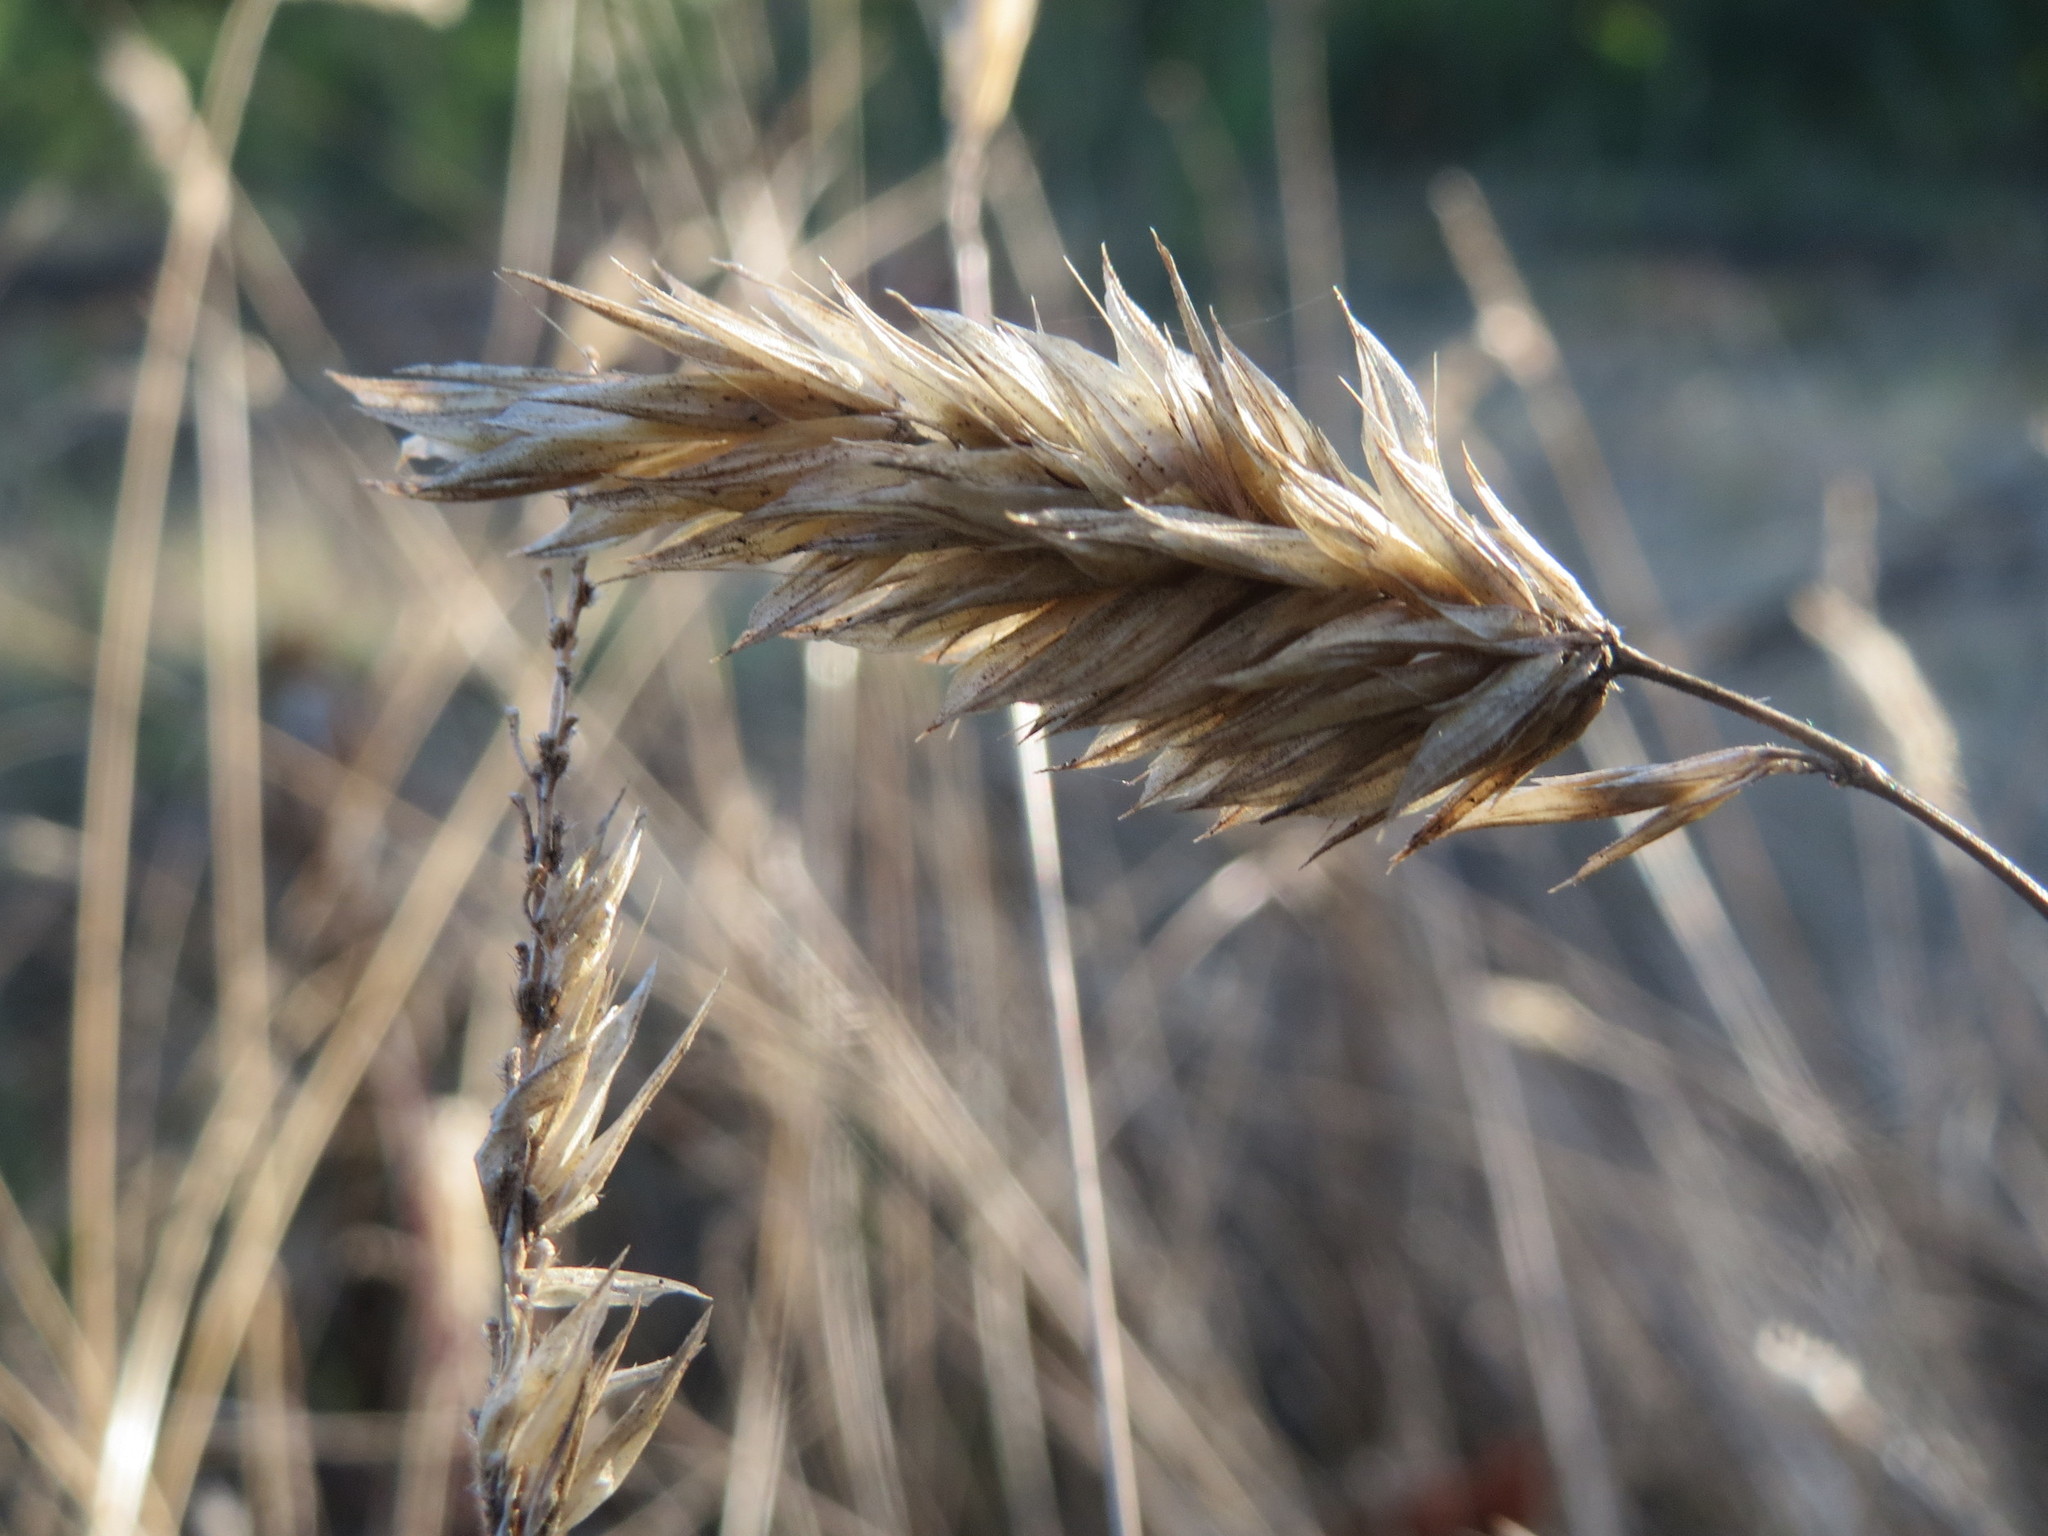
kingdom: Plantae
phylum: Tracheophyta
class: Liliopsida
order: Poales
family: Poaceae
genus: Anthoxanthum
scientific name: Anthoxanthum odoratum
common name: Sweet vernalgrass
